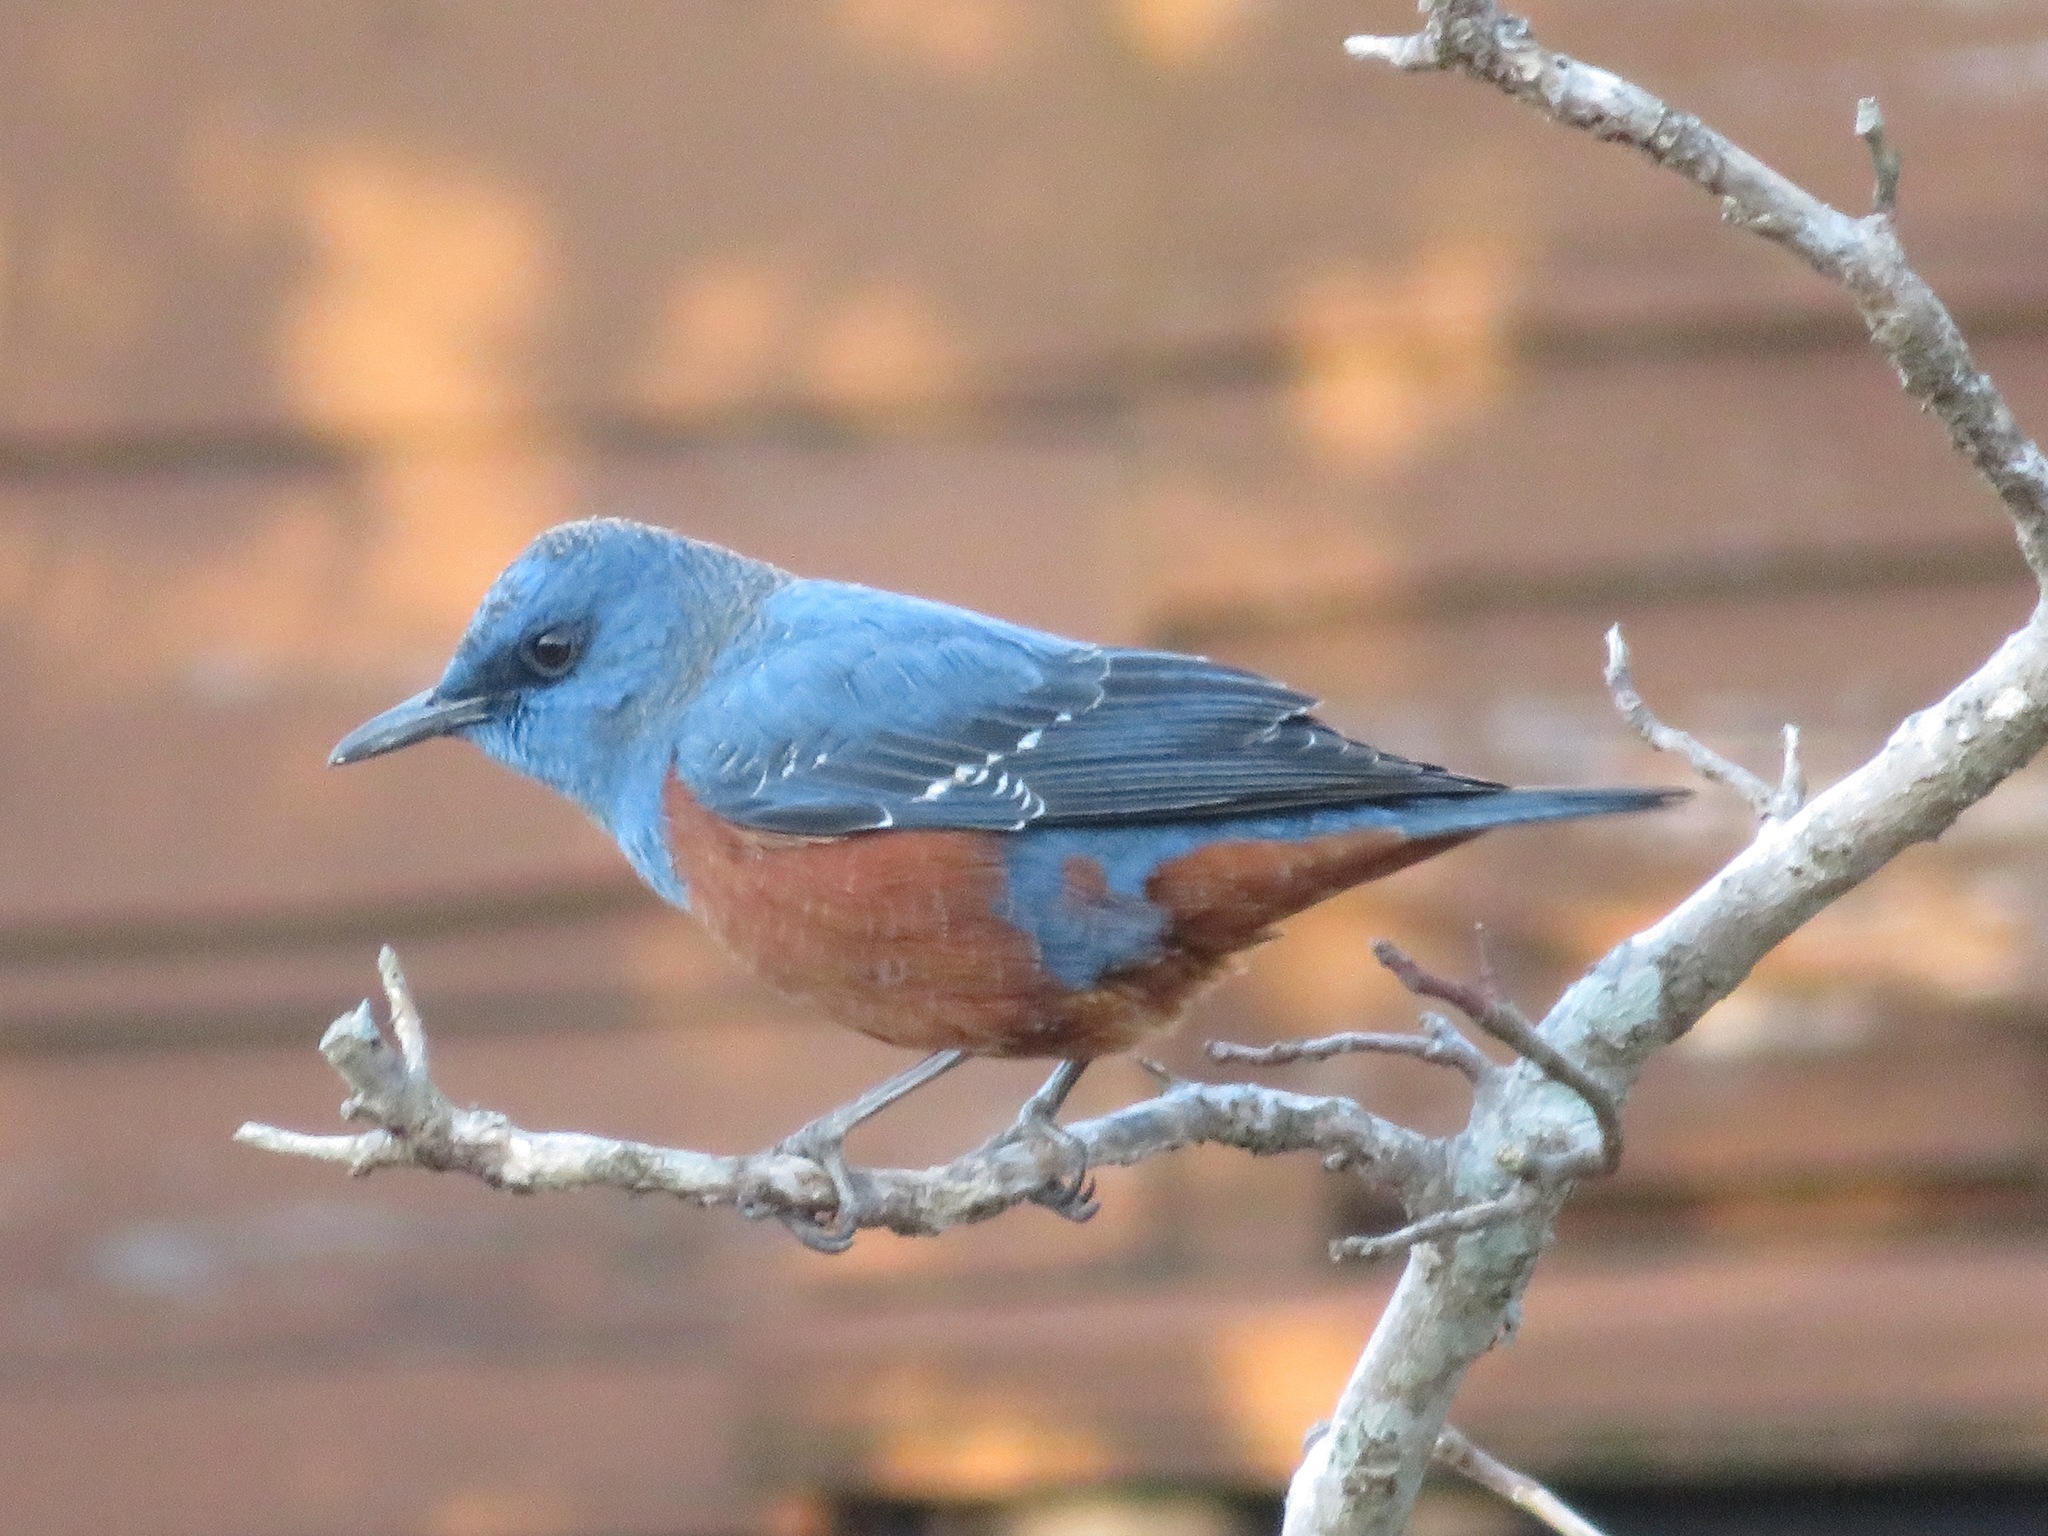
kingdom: Animalia
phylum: Chordata
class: Aves
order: Passeriformes
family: Muscicapidae
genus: Monticola
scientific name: Monticola solitarius
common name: Blue rock thrush
